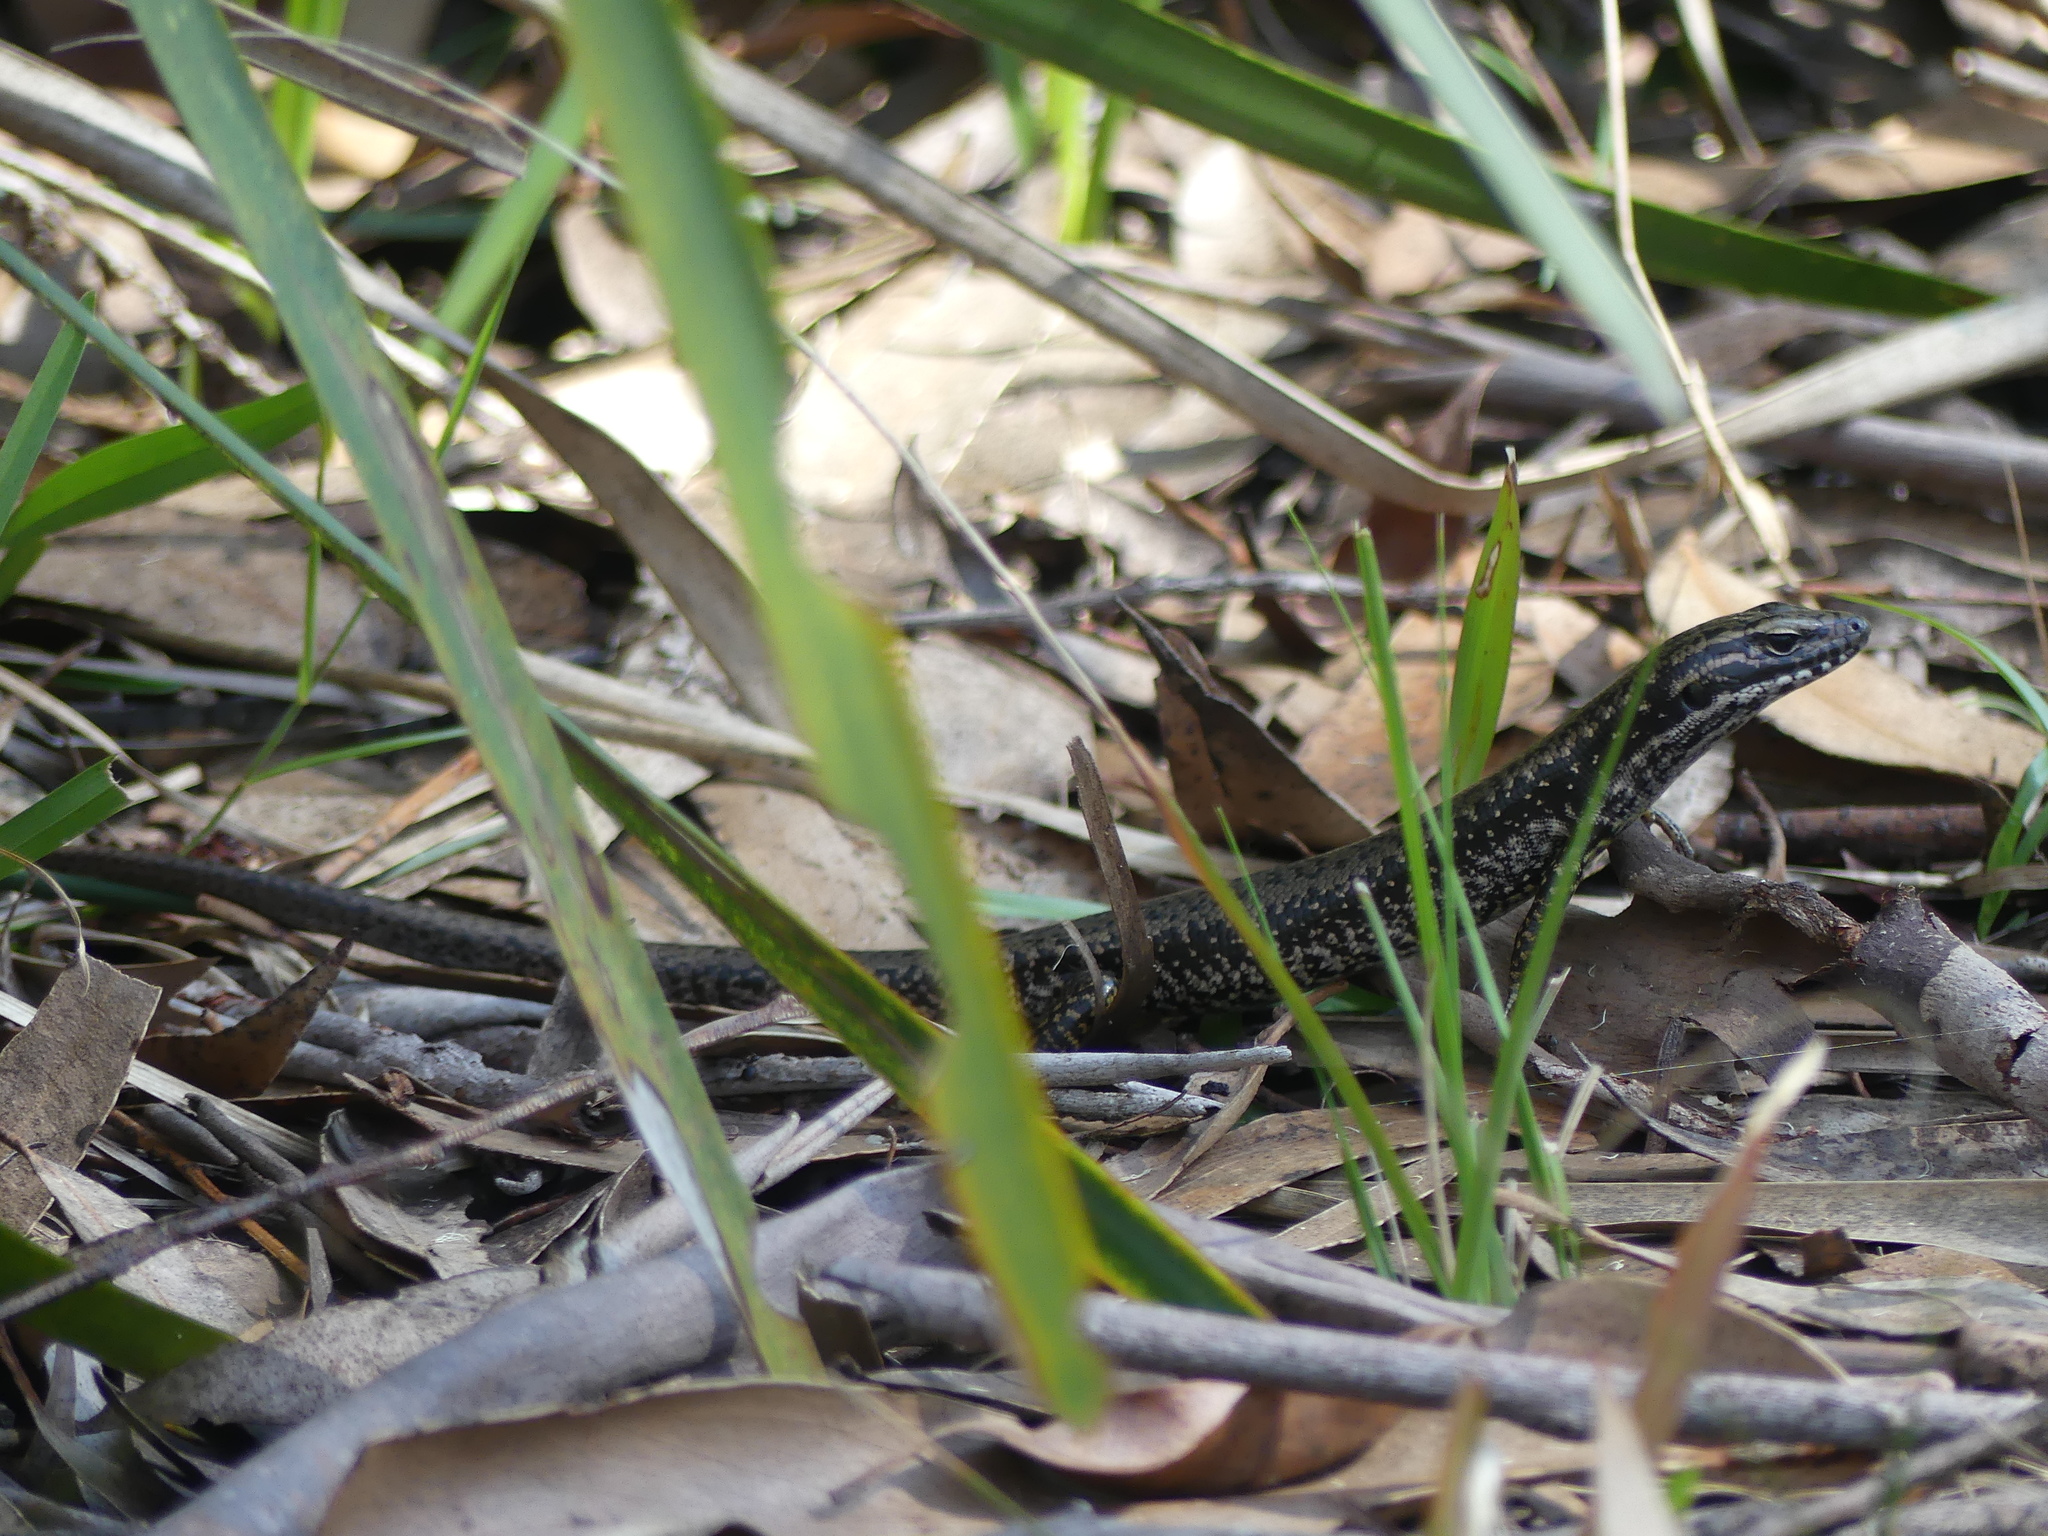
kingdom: Animalia
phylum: Chordata
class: Squamata
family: Scincidae
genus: Eulamprus
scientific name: Eulamprus heatwolei
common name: Warm-temperate water-skink
